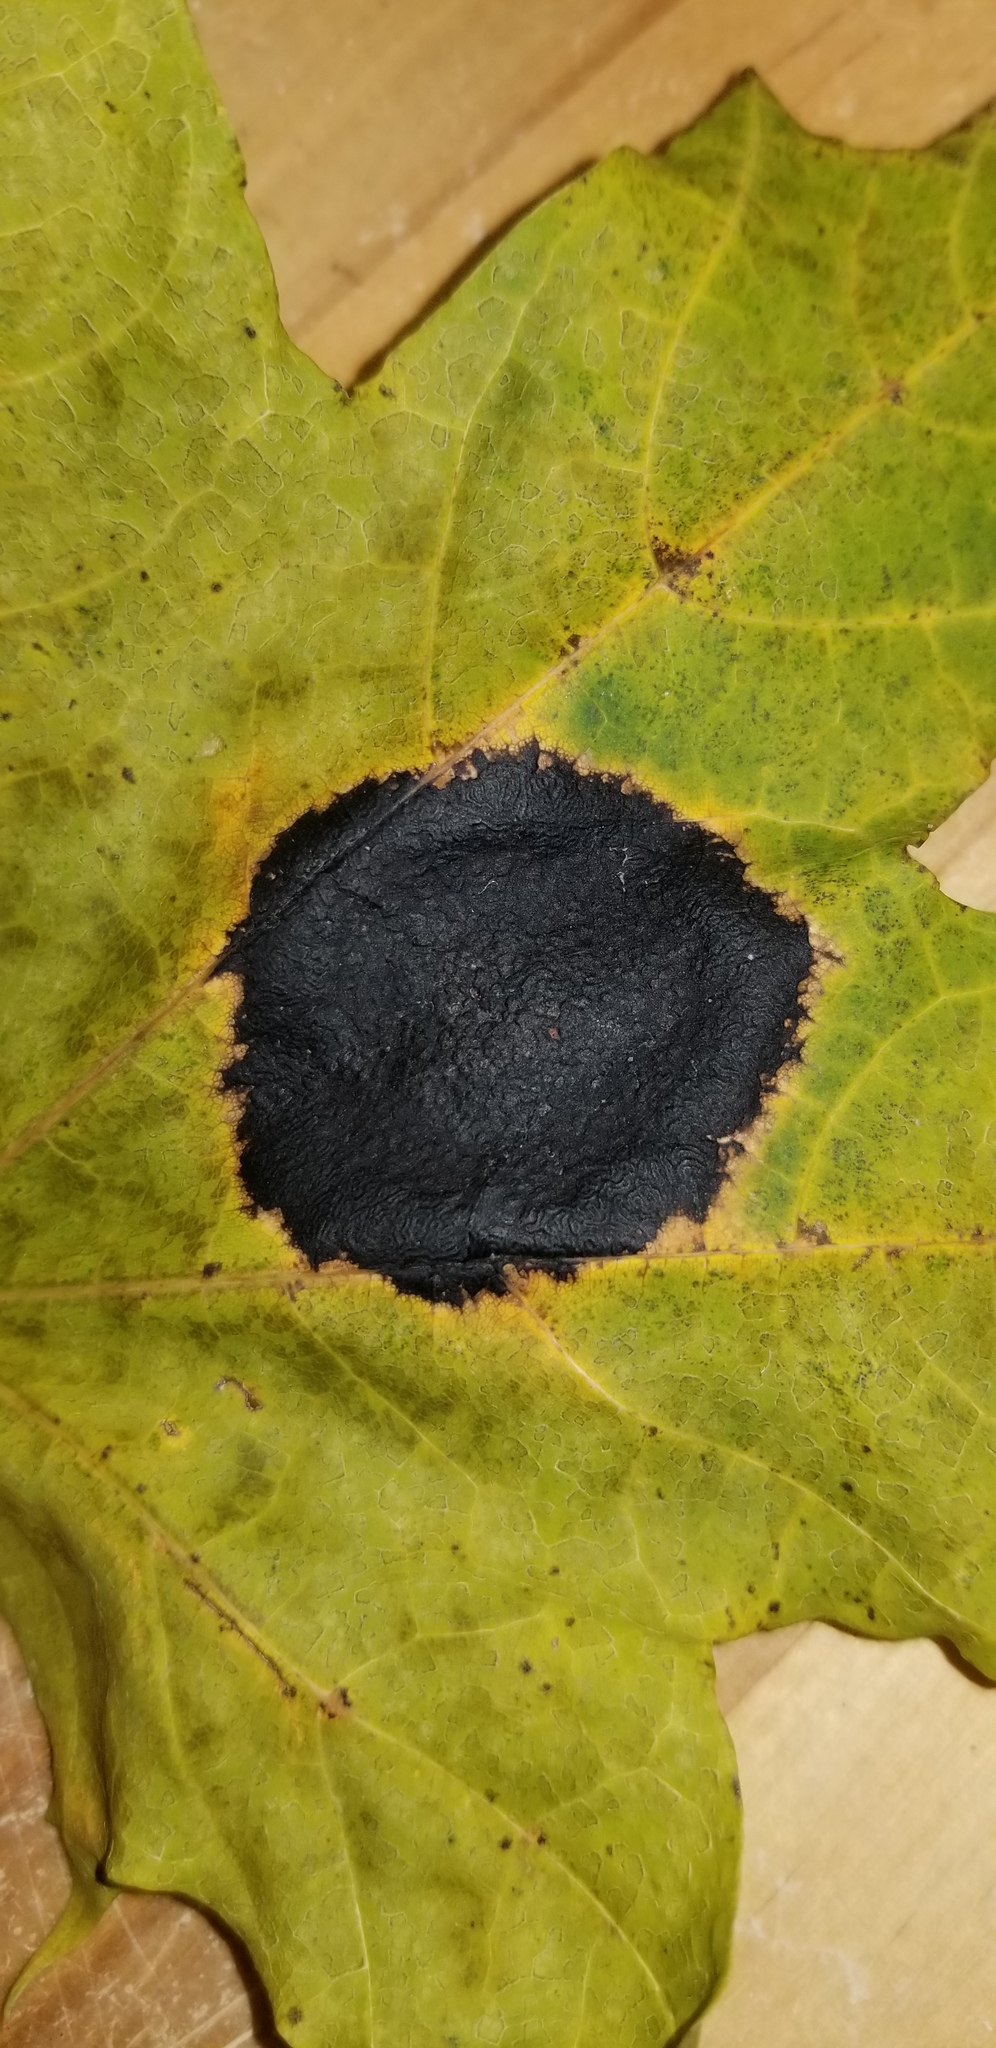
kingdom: Fungi
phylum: Ascomycota
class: Leotiomycetes
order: Rhytismatales
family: Rhytismataceae
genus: Rhytisma
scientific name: Rhytisma acerinum
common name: European tar spot
